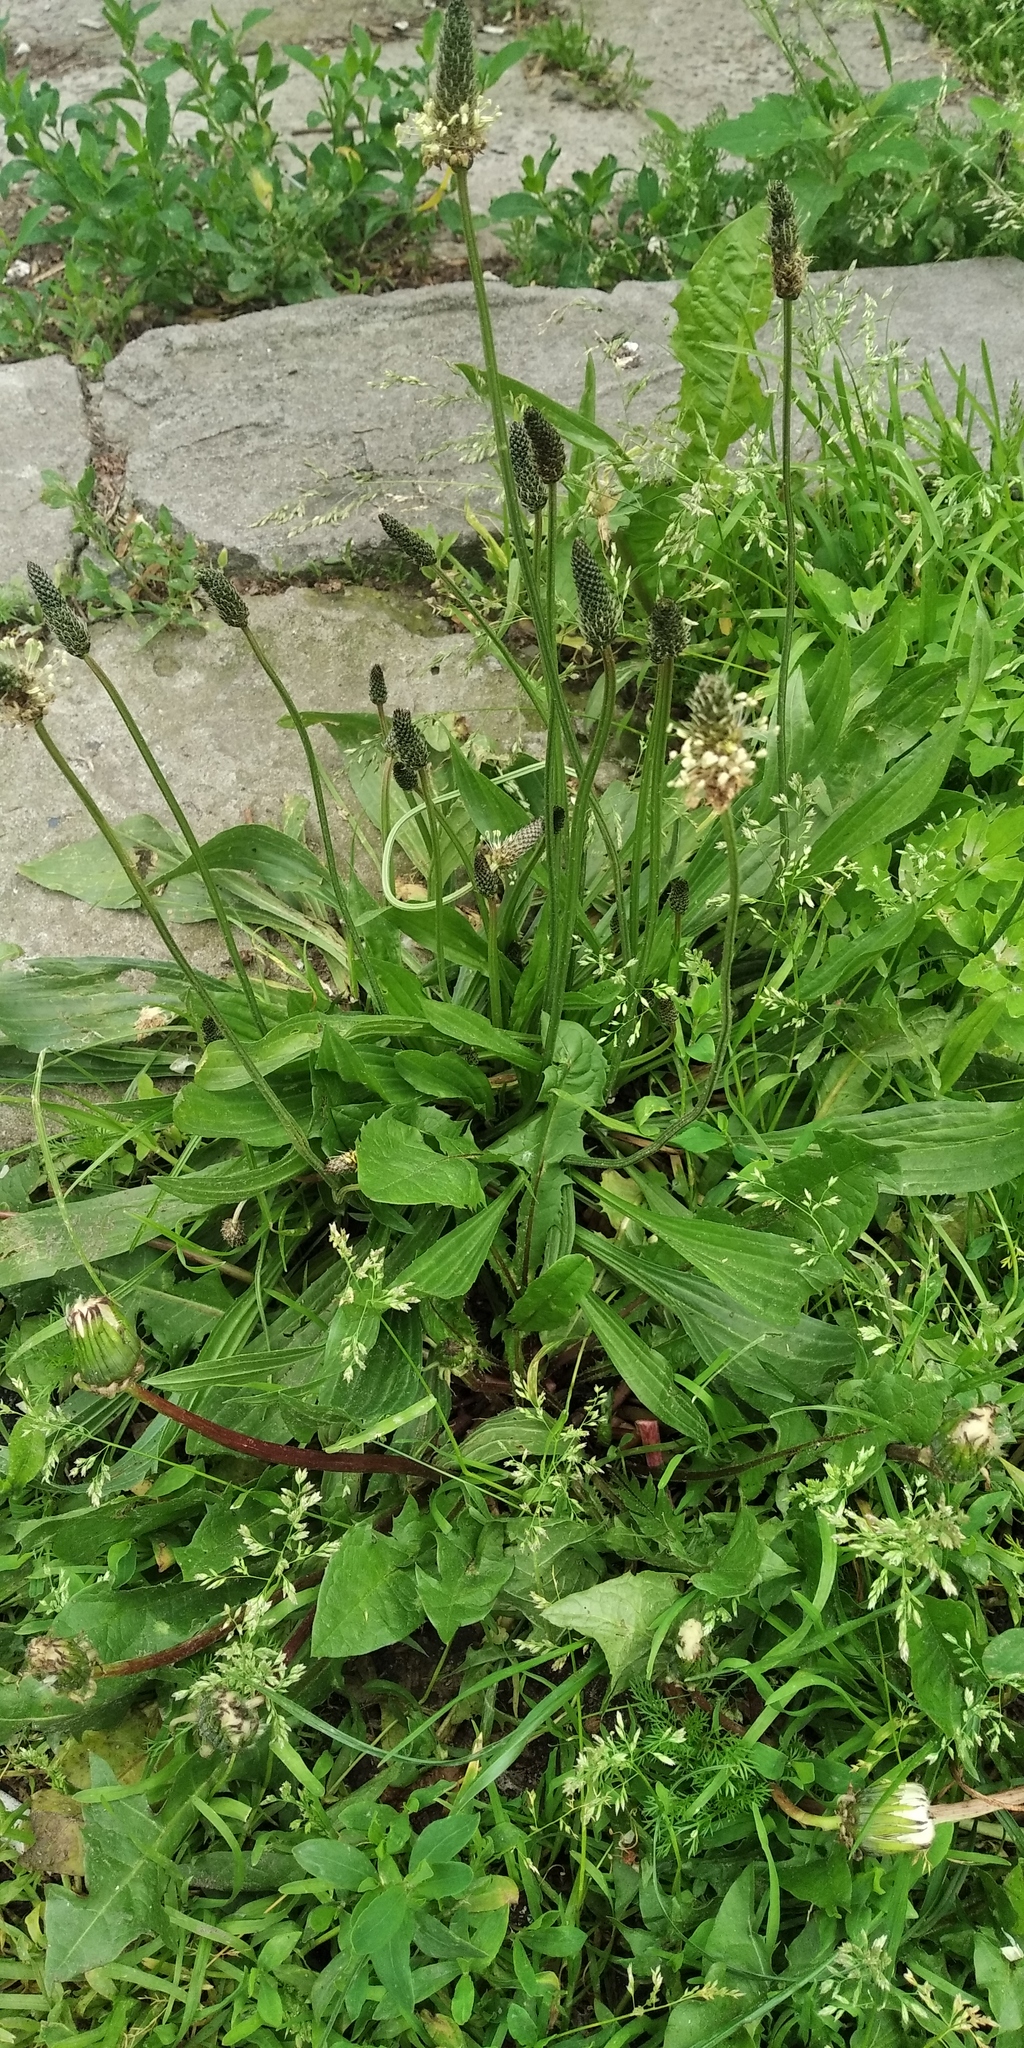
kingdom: Plantae
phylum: Tracheophyta
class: Magnoliopsida
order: Lamiales
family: Plantaginaceae
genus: Plantago
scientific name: Plantago lanceolata
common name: Ribwort plantain
